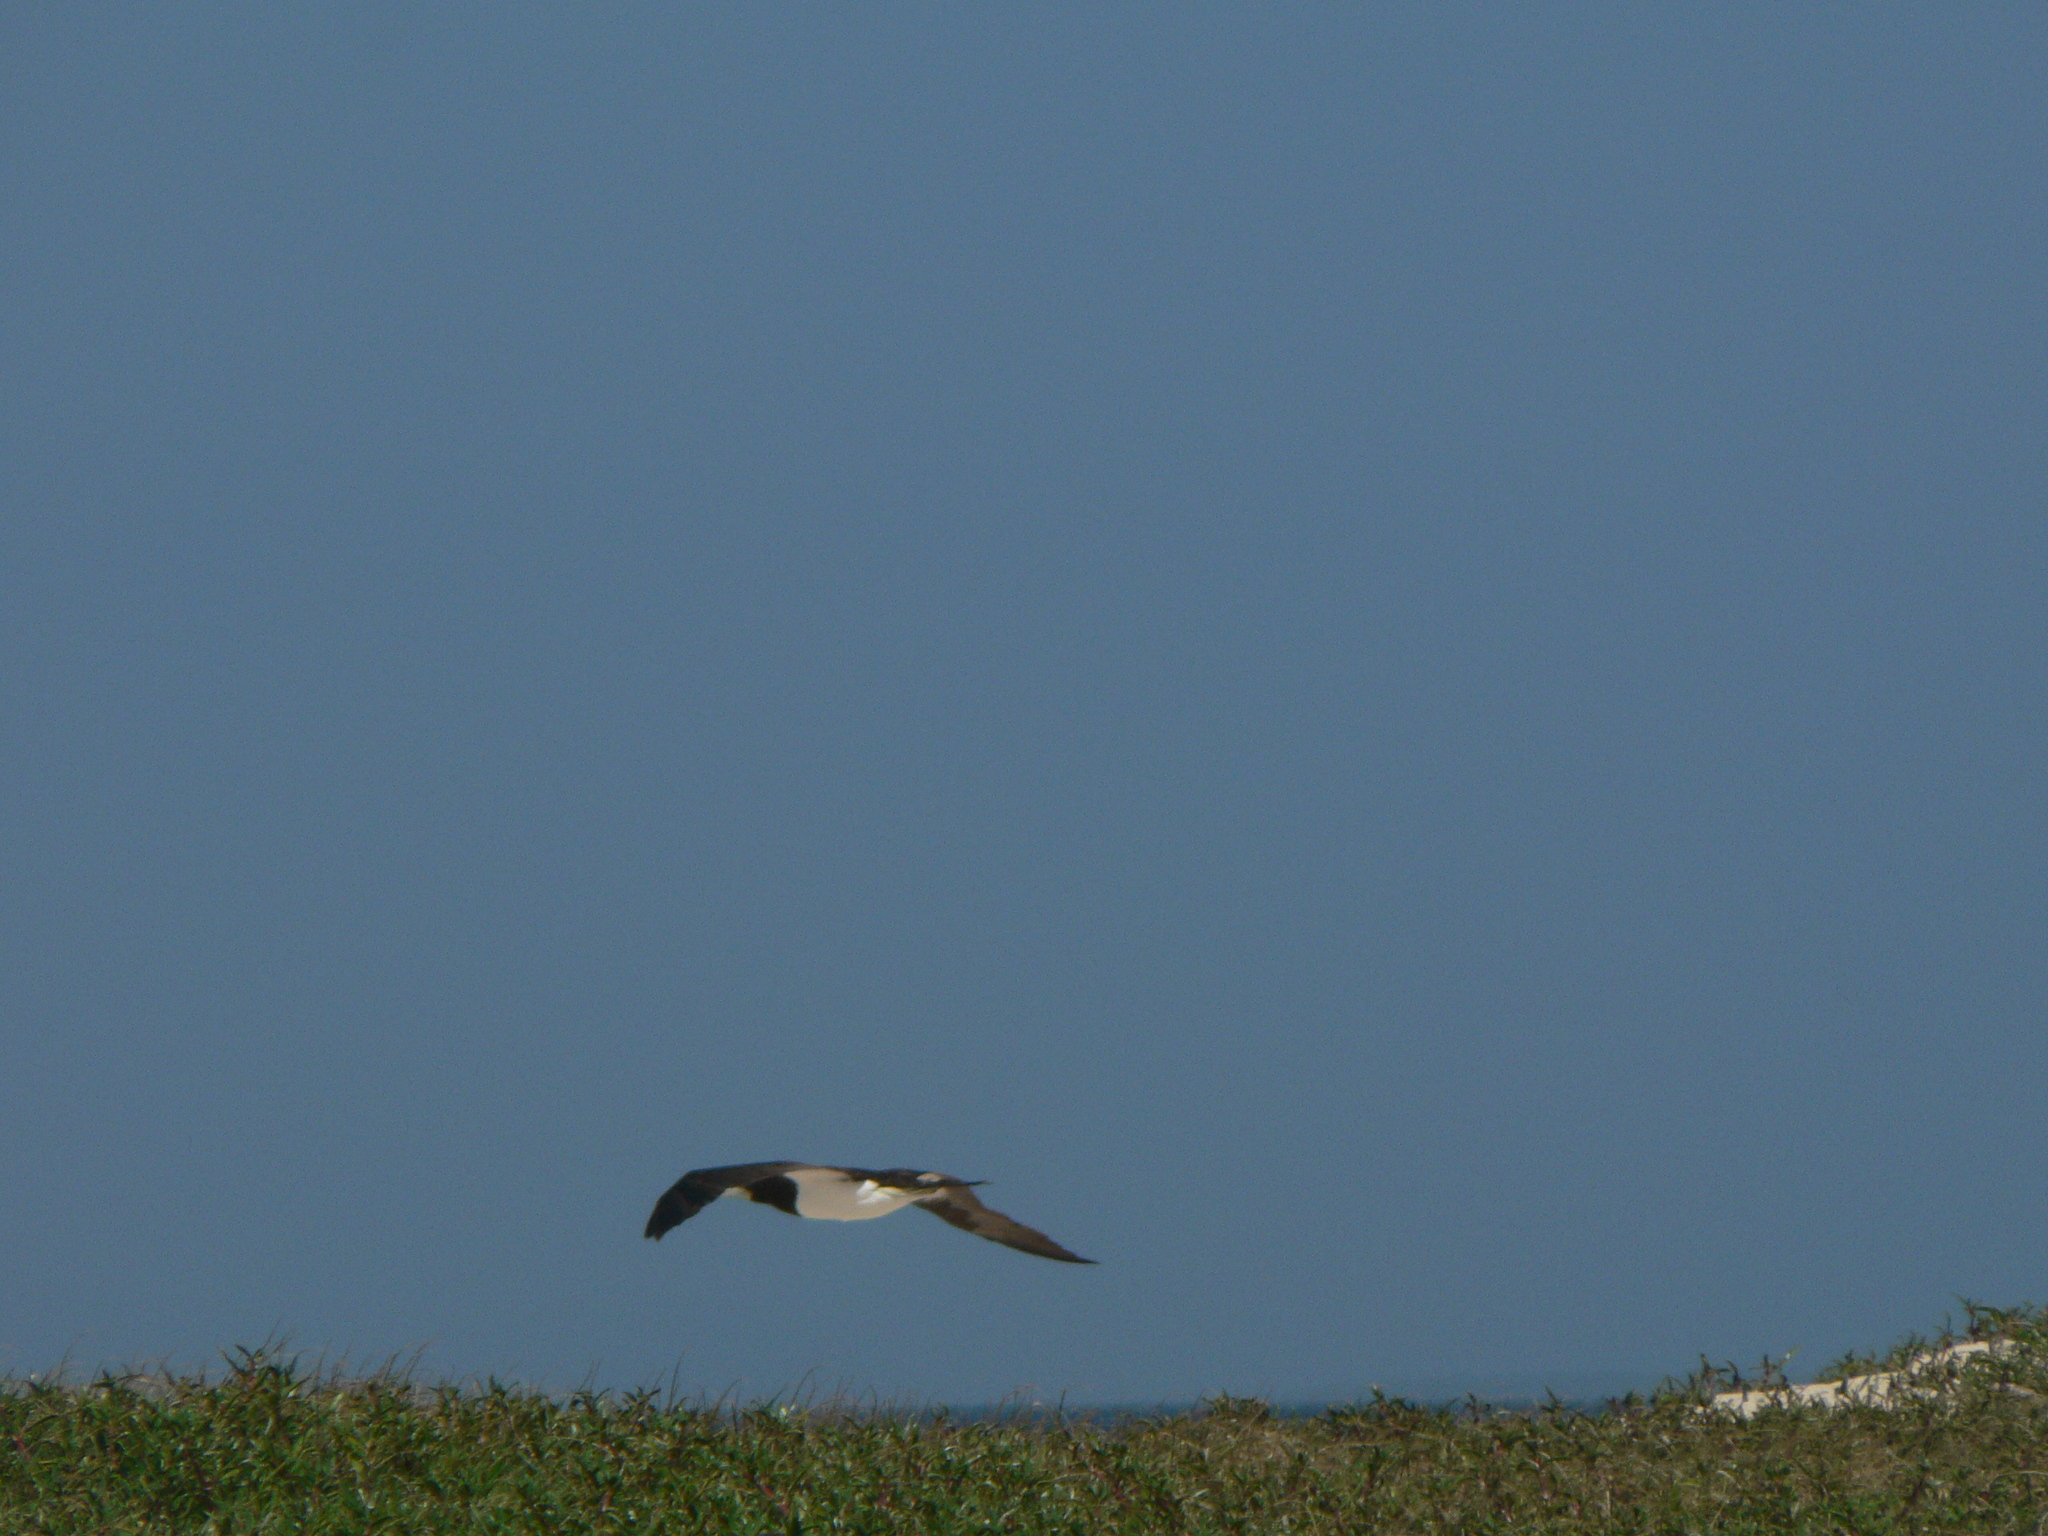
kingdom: Animalia
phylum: Chordata
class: Aves
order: Suliformes
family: Sulidae
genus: Sula
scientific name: Sula leucogaster
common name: Brown booby
